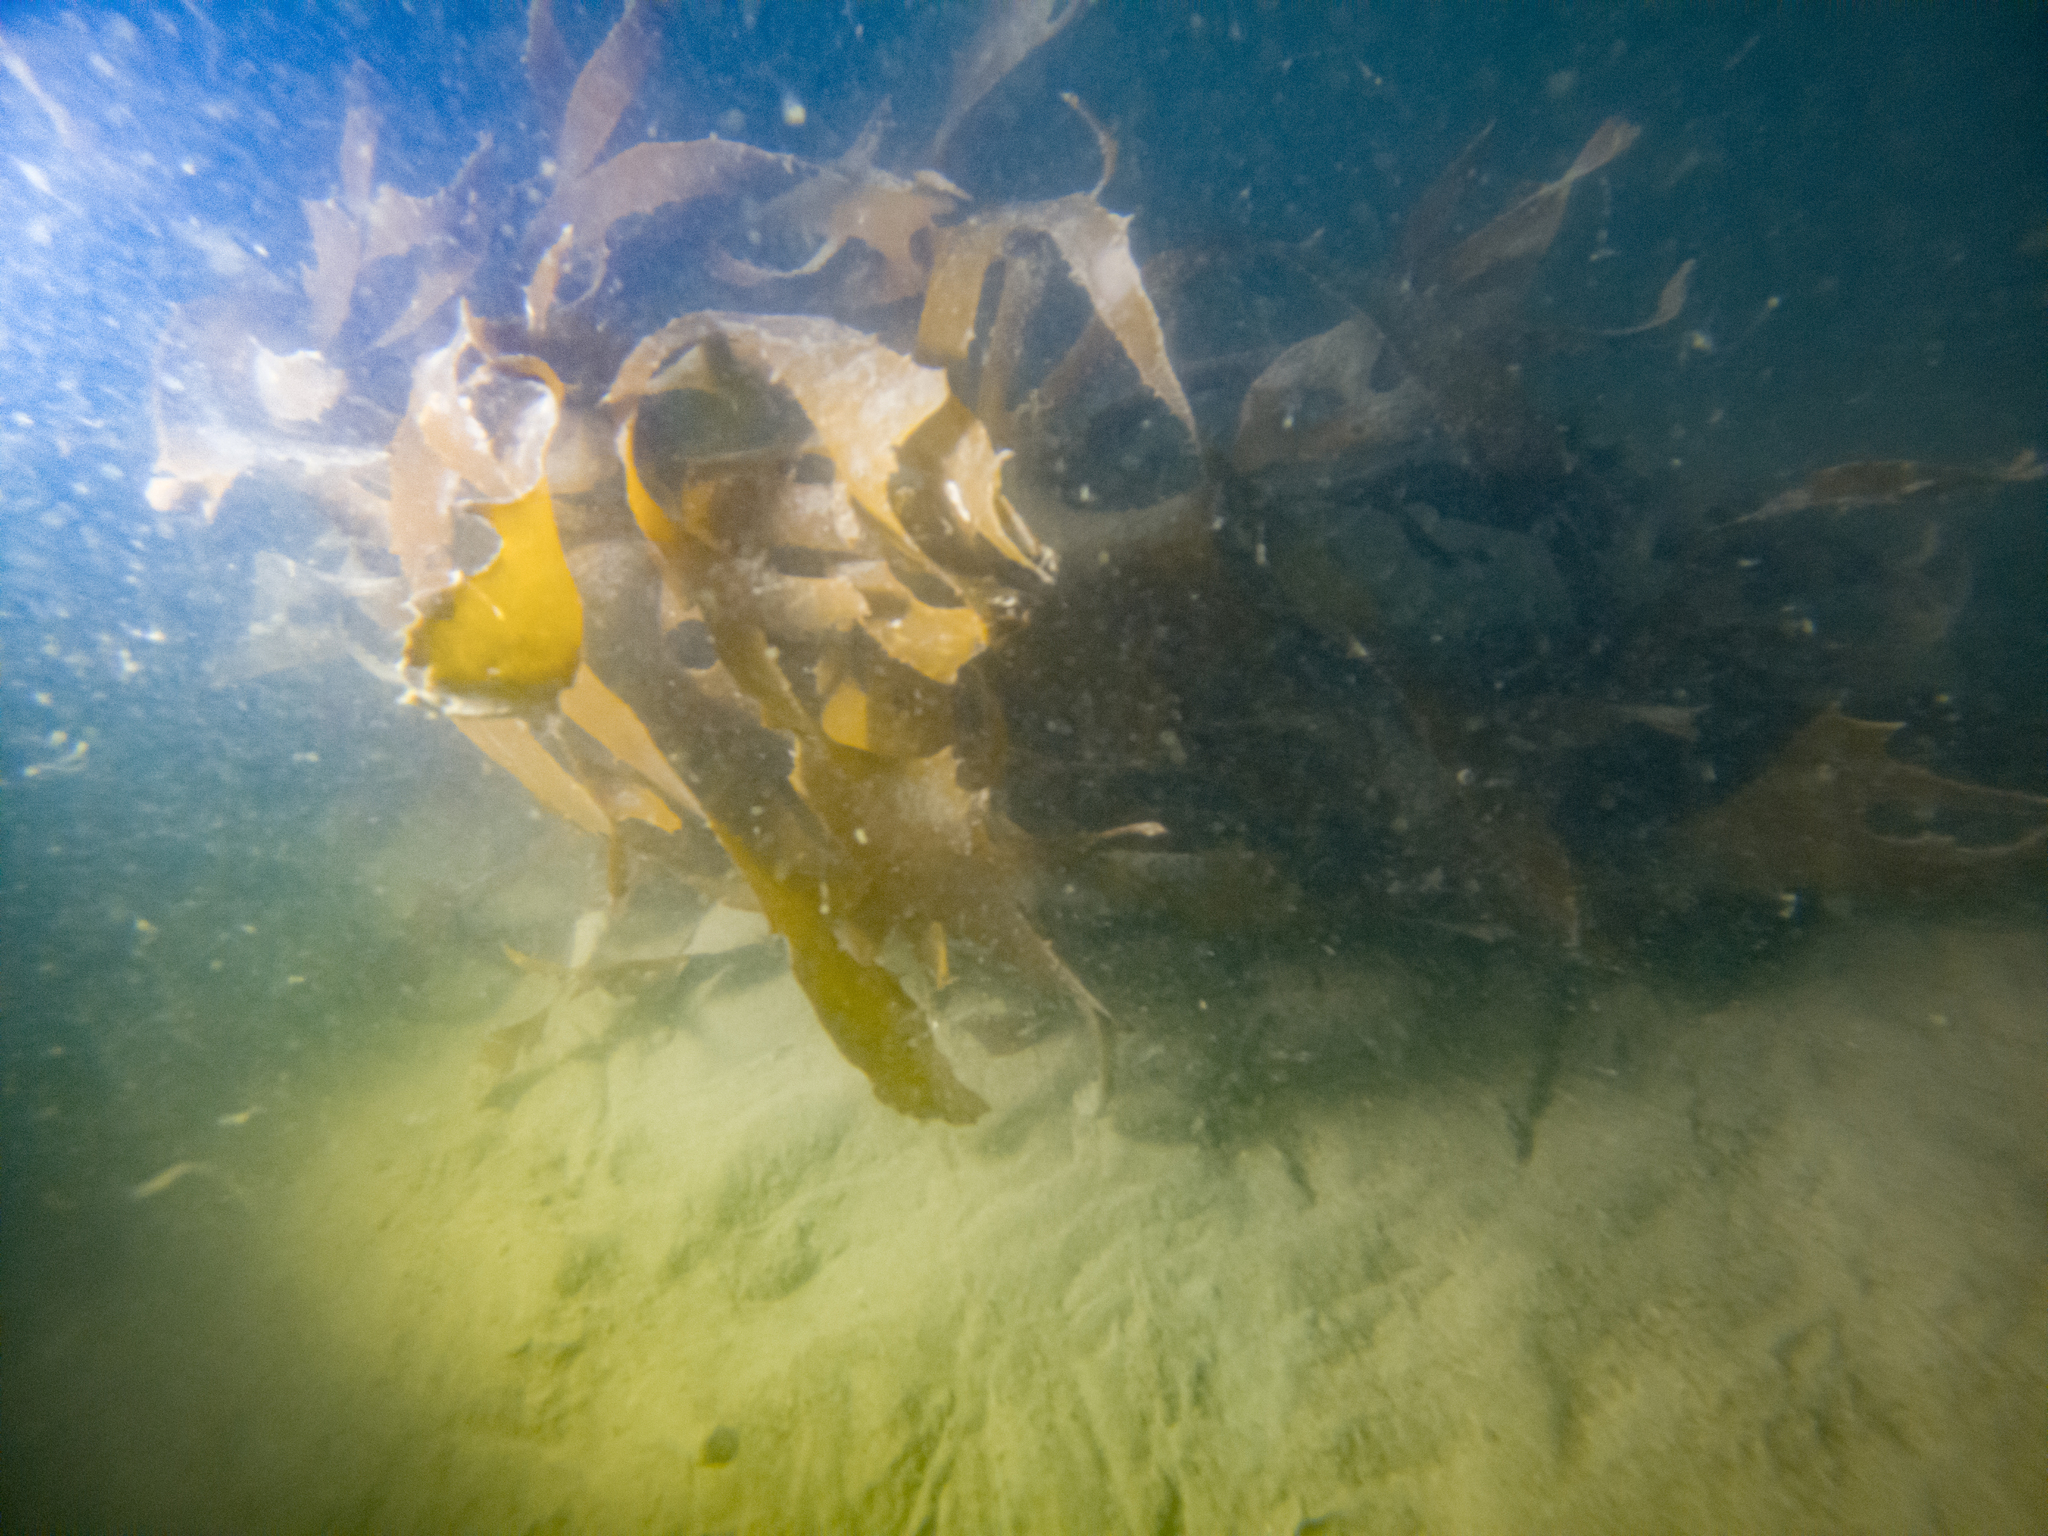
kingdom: Chromista
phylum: Ochrophyta
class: Phaeophyceae
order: Laminariales
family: Lessoniaceae
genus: Ecklonia
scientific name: Ecklonia radiata
